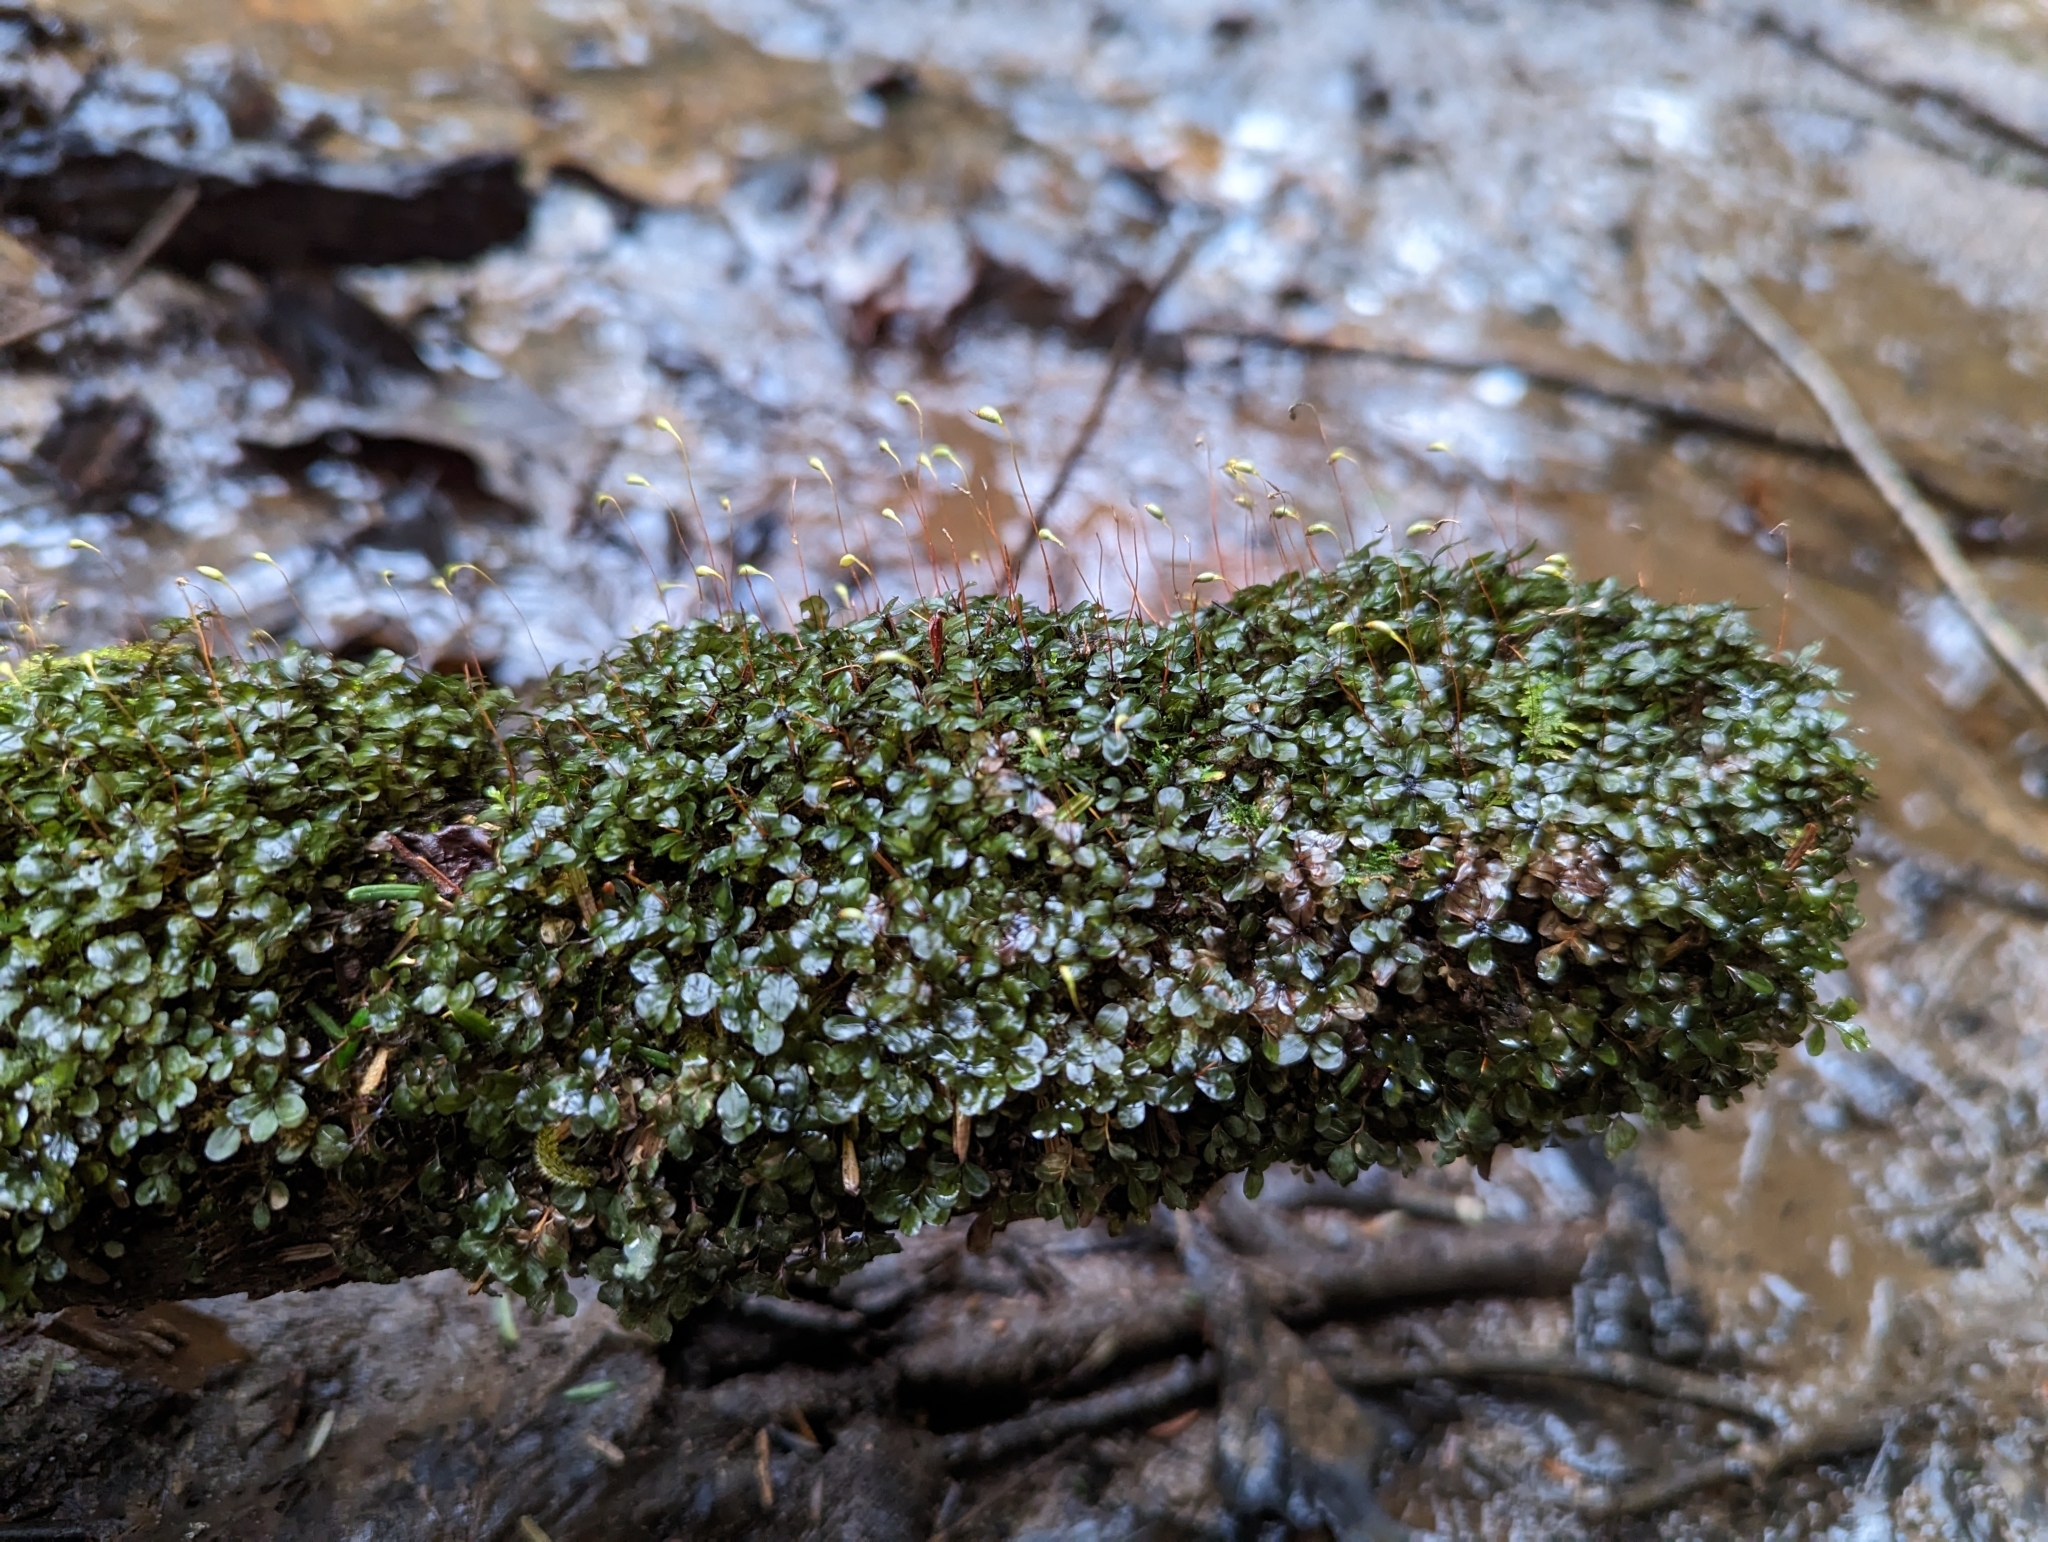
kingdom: Plantae
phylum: Bryophyta
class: Bryopsida
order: Bryales
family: Mniaceae
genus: Rhizomnium
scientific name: Rhizomnium punctatum
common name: Dotted leafy moss
